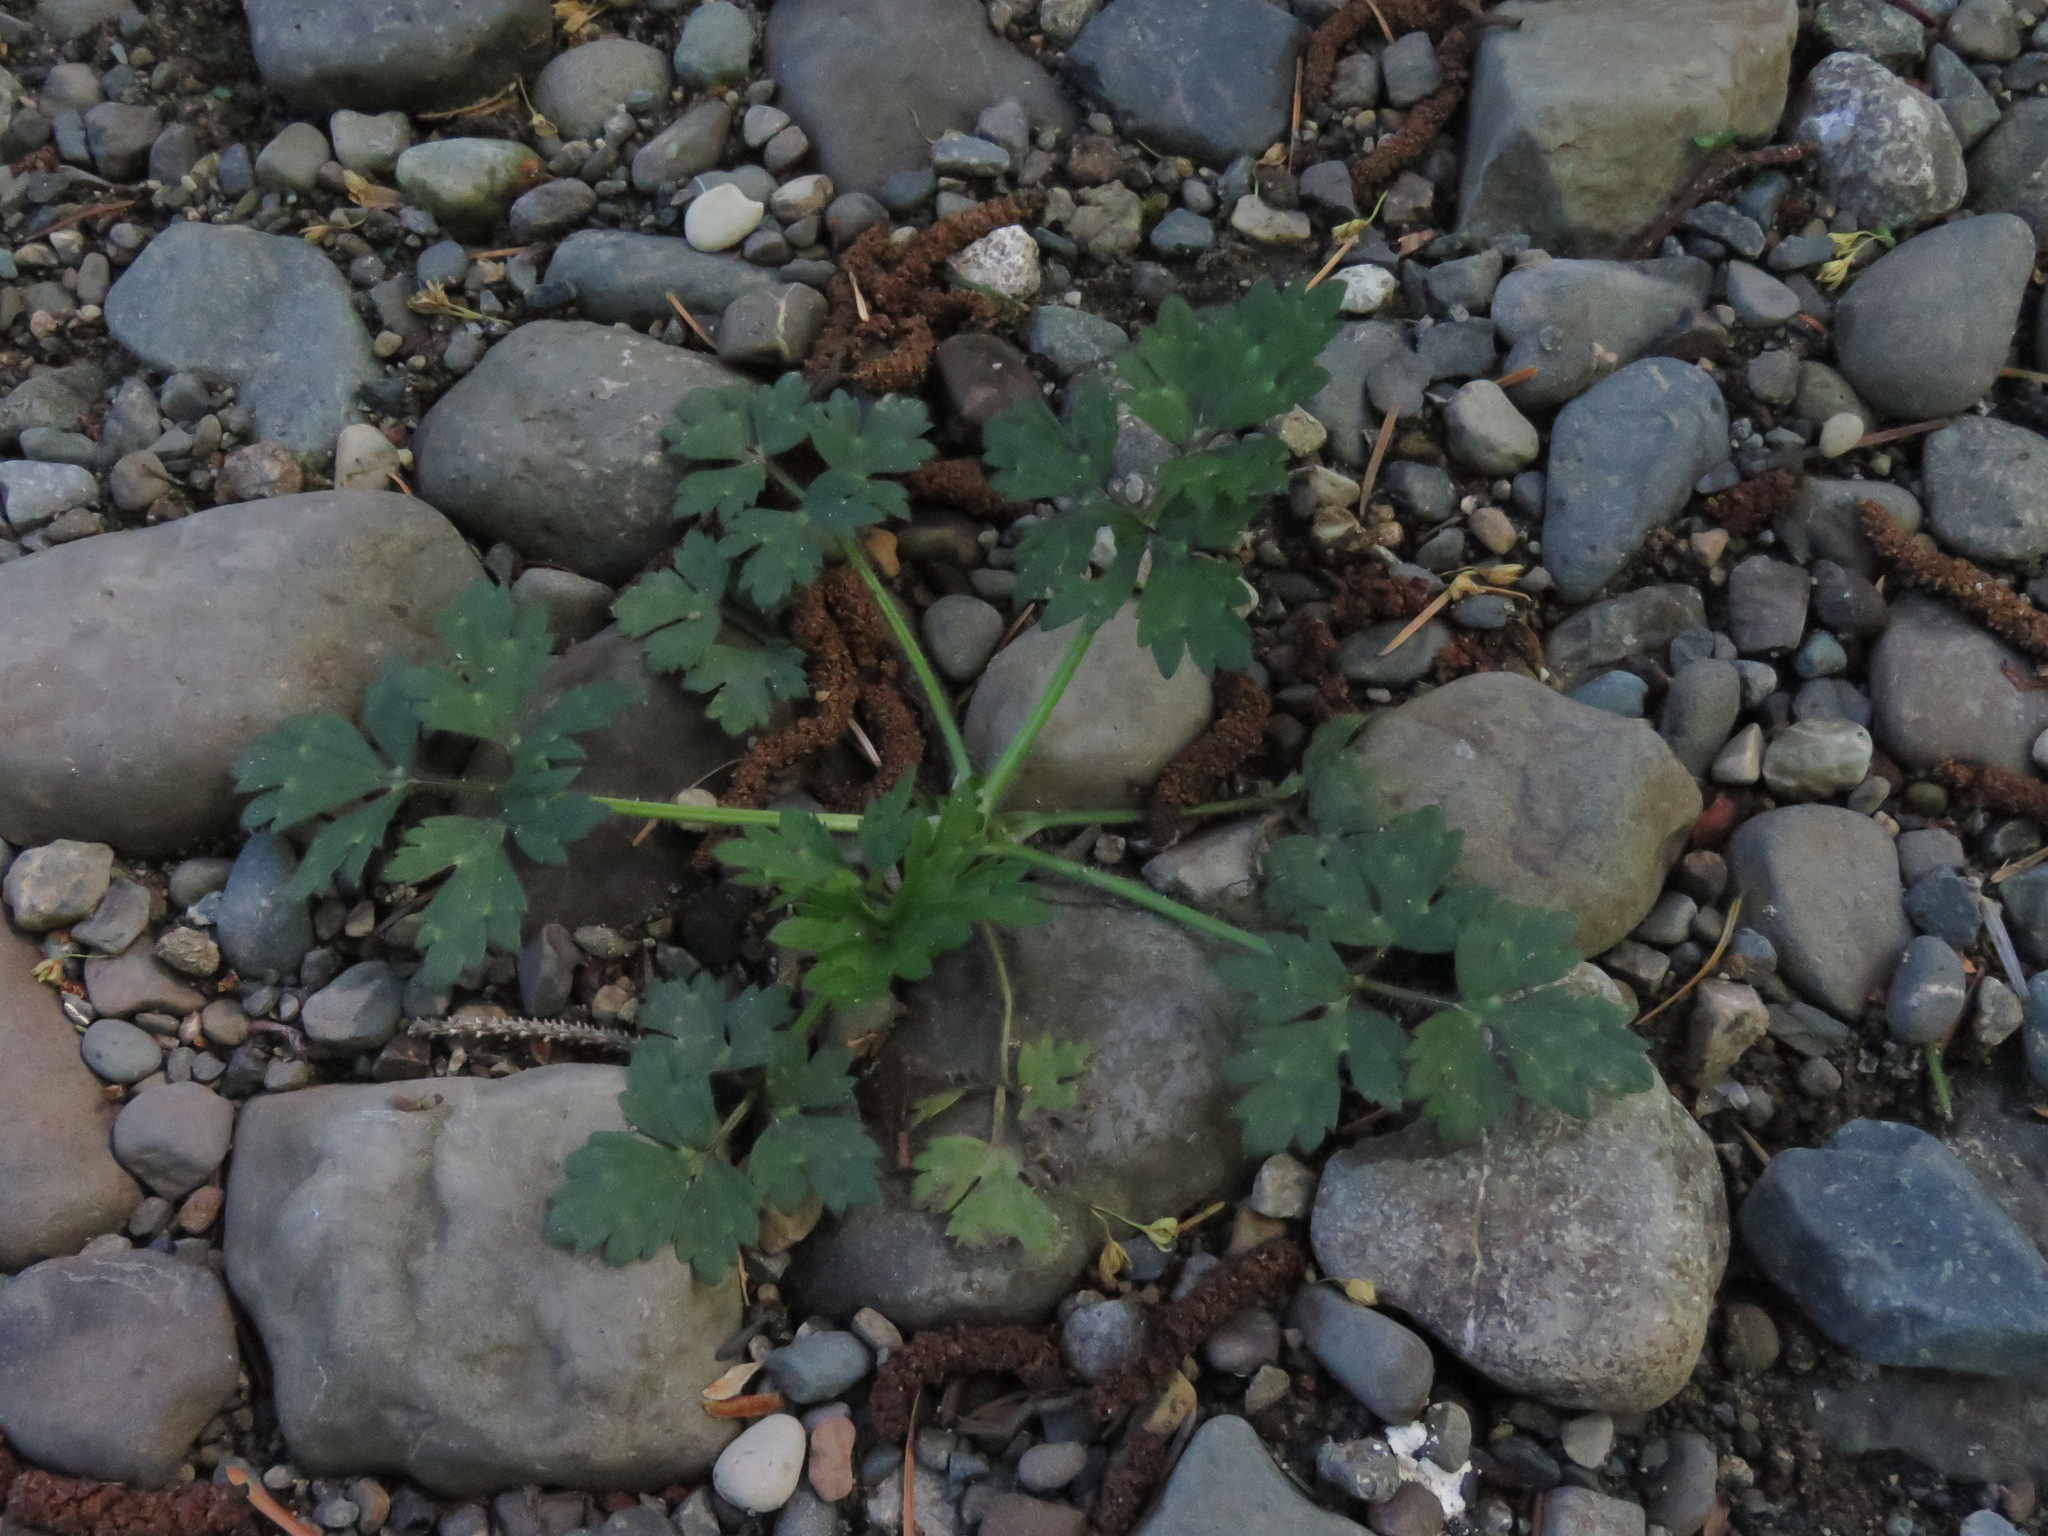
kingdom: Plantae
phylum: Tracheophyta
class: Magnoliopsida
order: Ranunculales
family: Ranunculaceae
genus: Ranunculus
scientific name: Ranunculus repens
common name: Creeping buttercup
